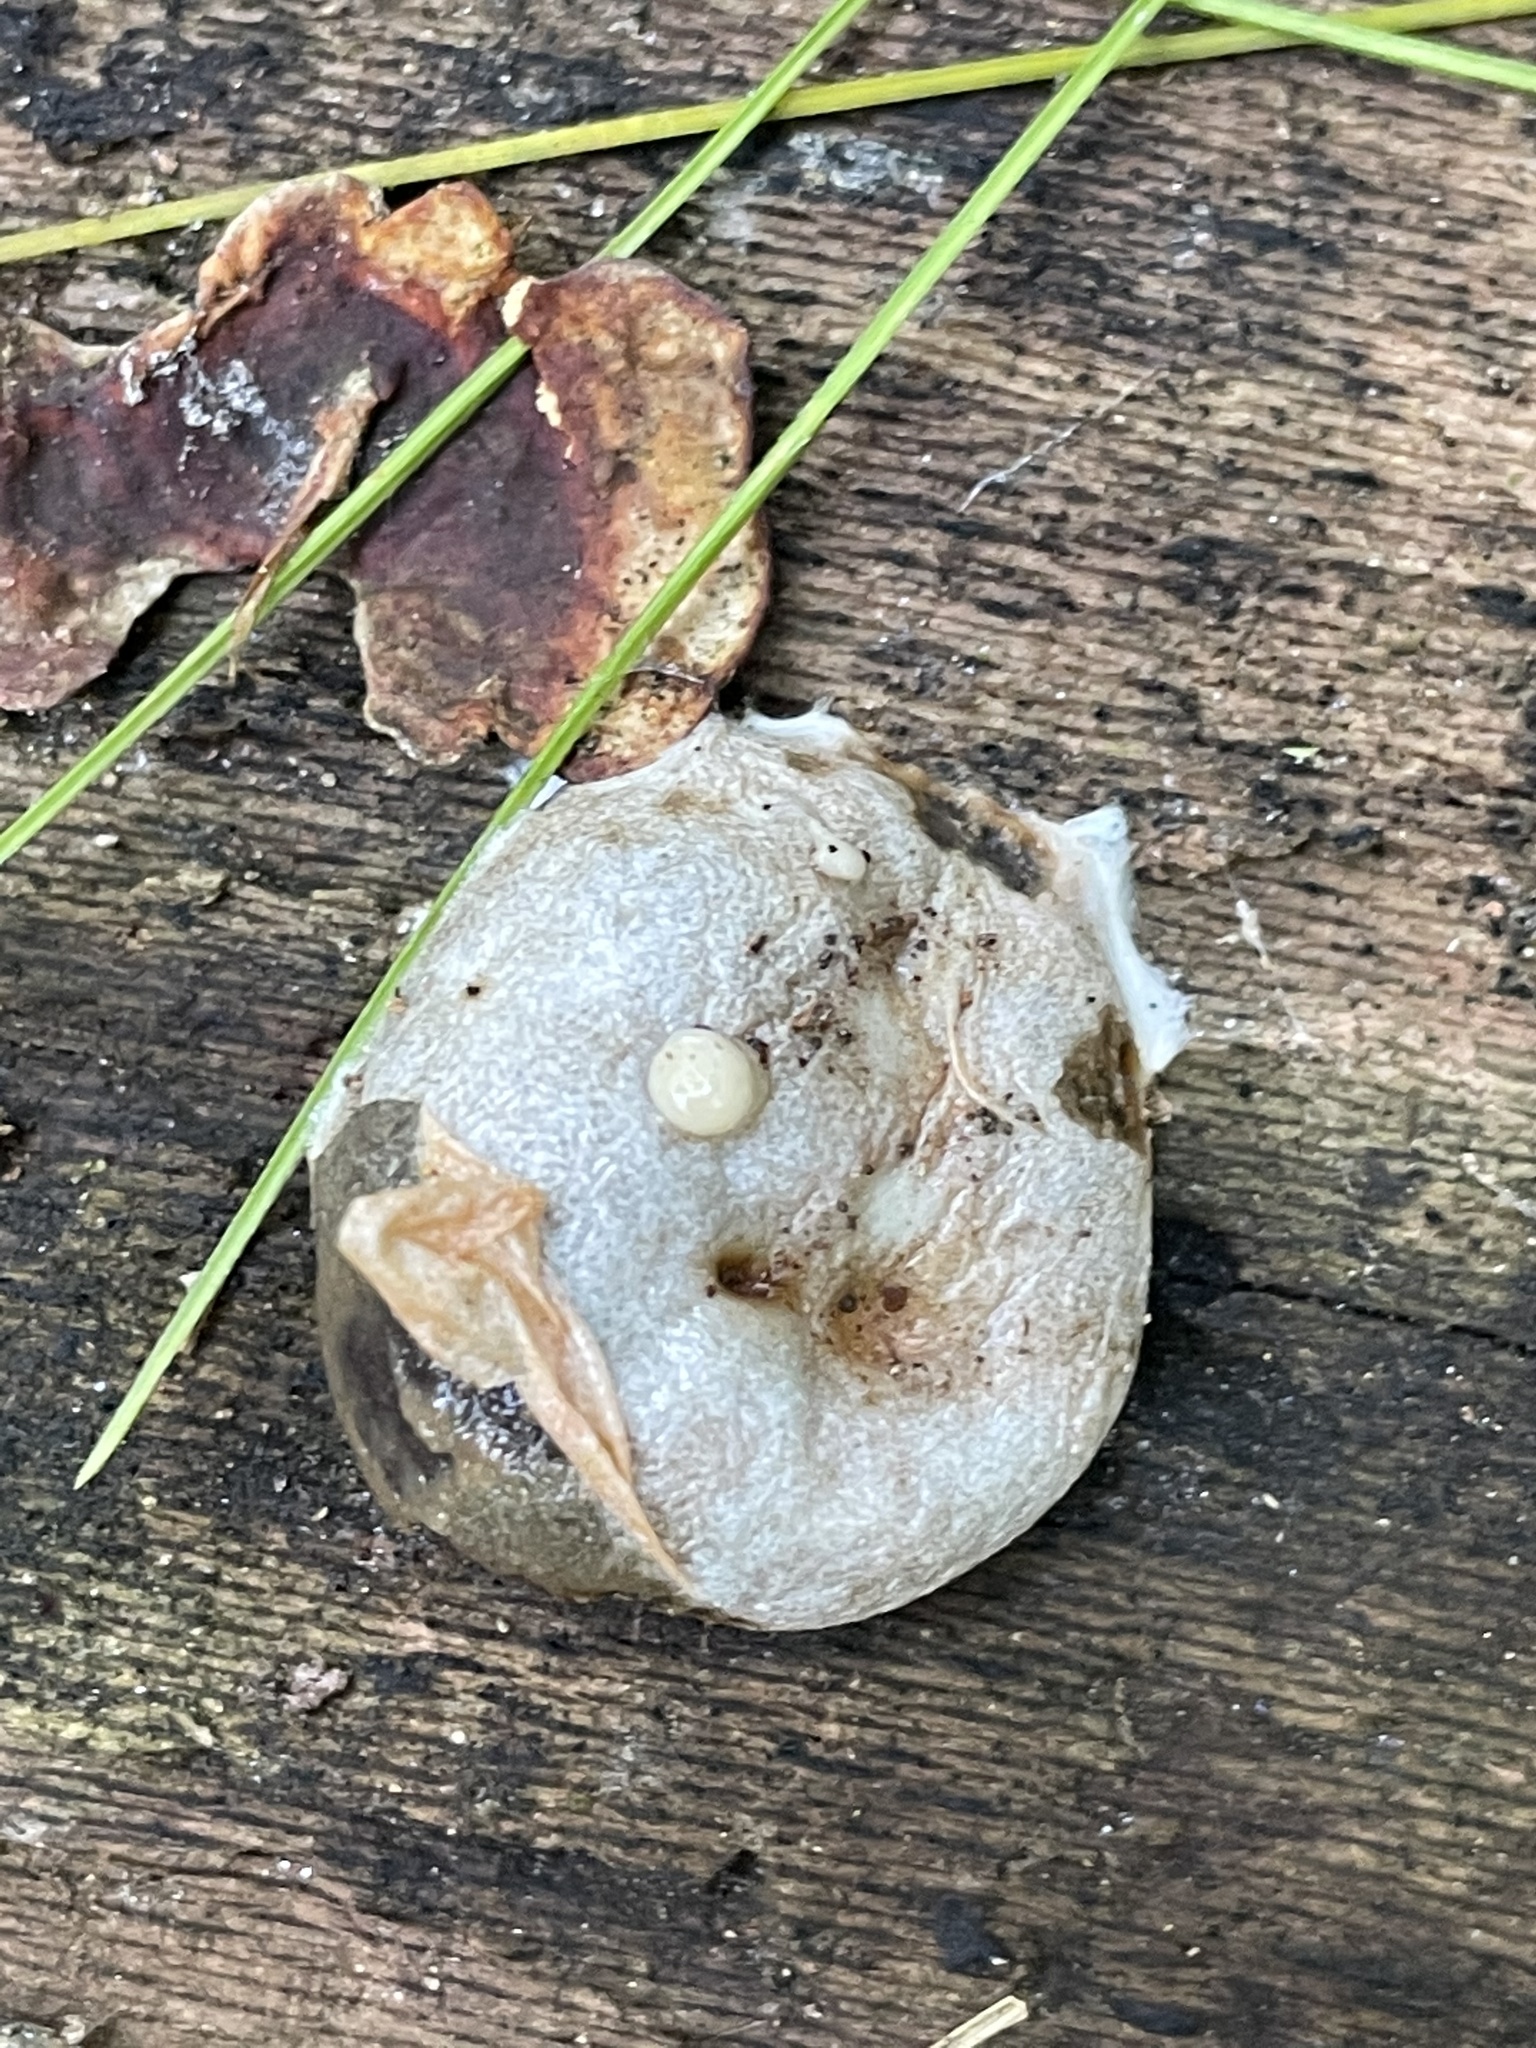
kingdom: Protozoa
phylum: Mycetozoa
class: Myxomycetes
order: Cribrariales
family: Tubiferaceae
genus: Reticularia
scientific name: Reticularia lycoperdon
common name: False puffball
